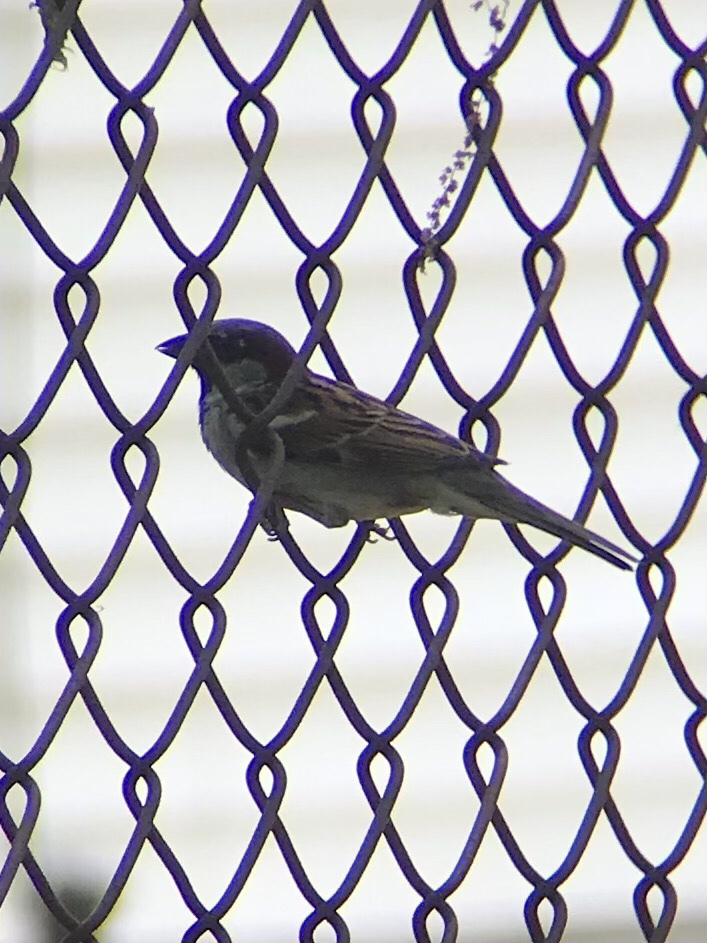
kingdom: Animalia
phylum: Chordata
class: Aves
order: Passeriformes
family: Passeridae
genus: Passer
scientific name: Passer domesticus
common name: House sparrow
